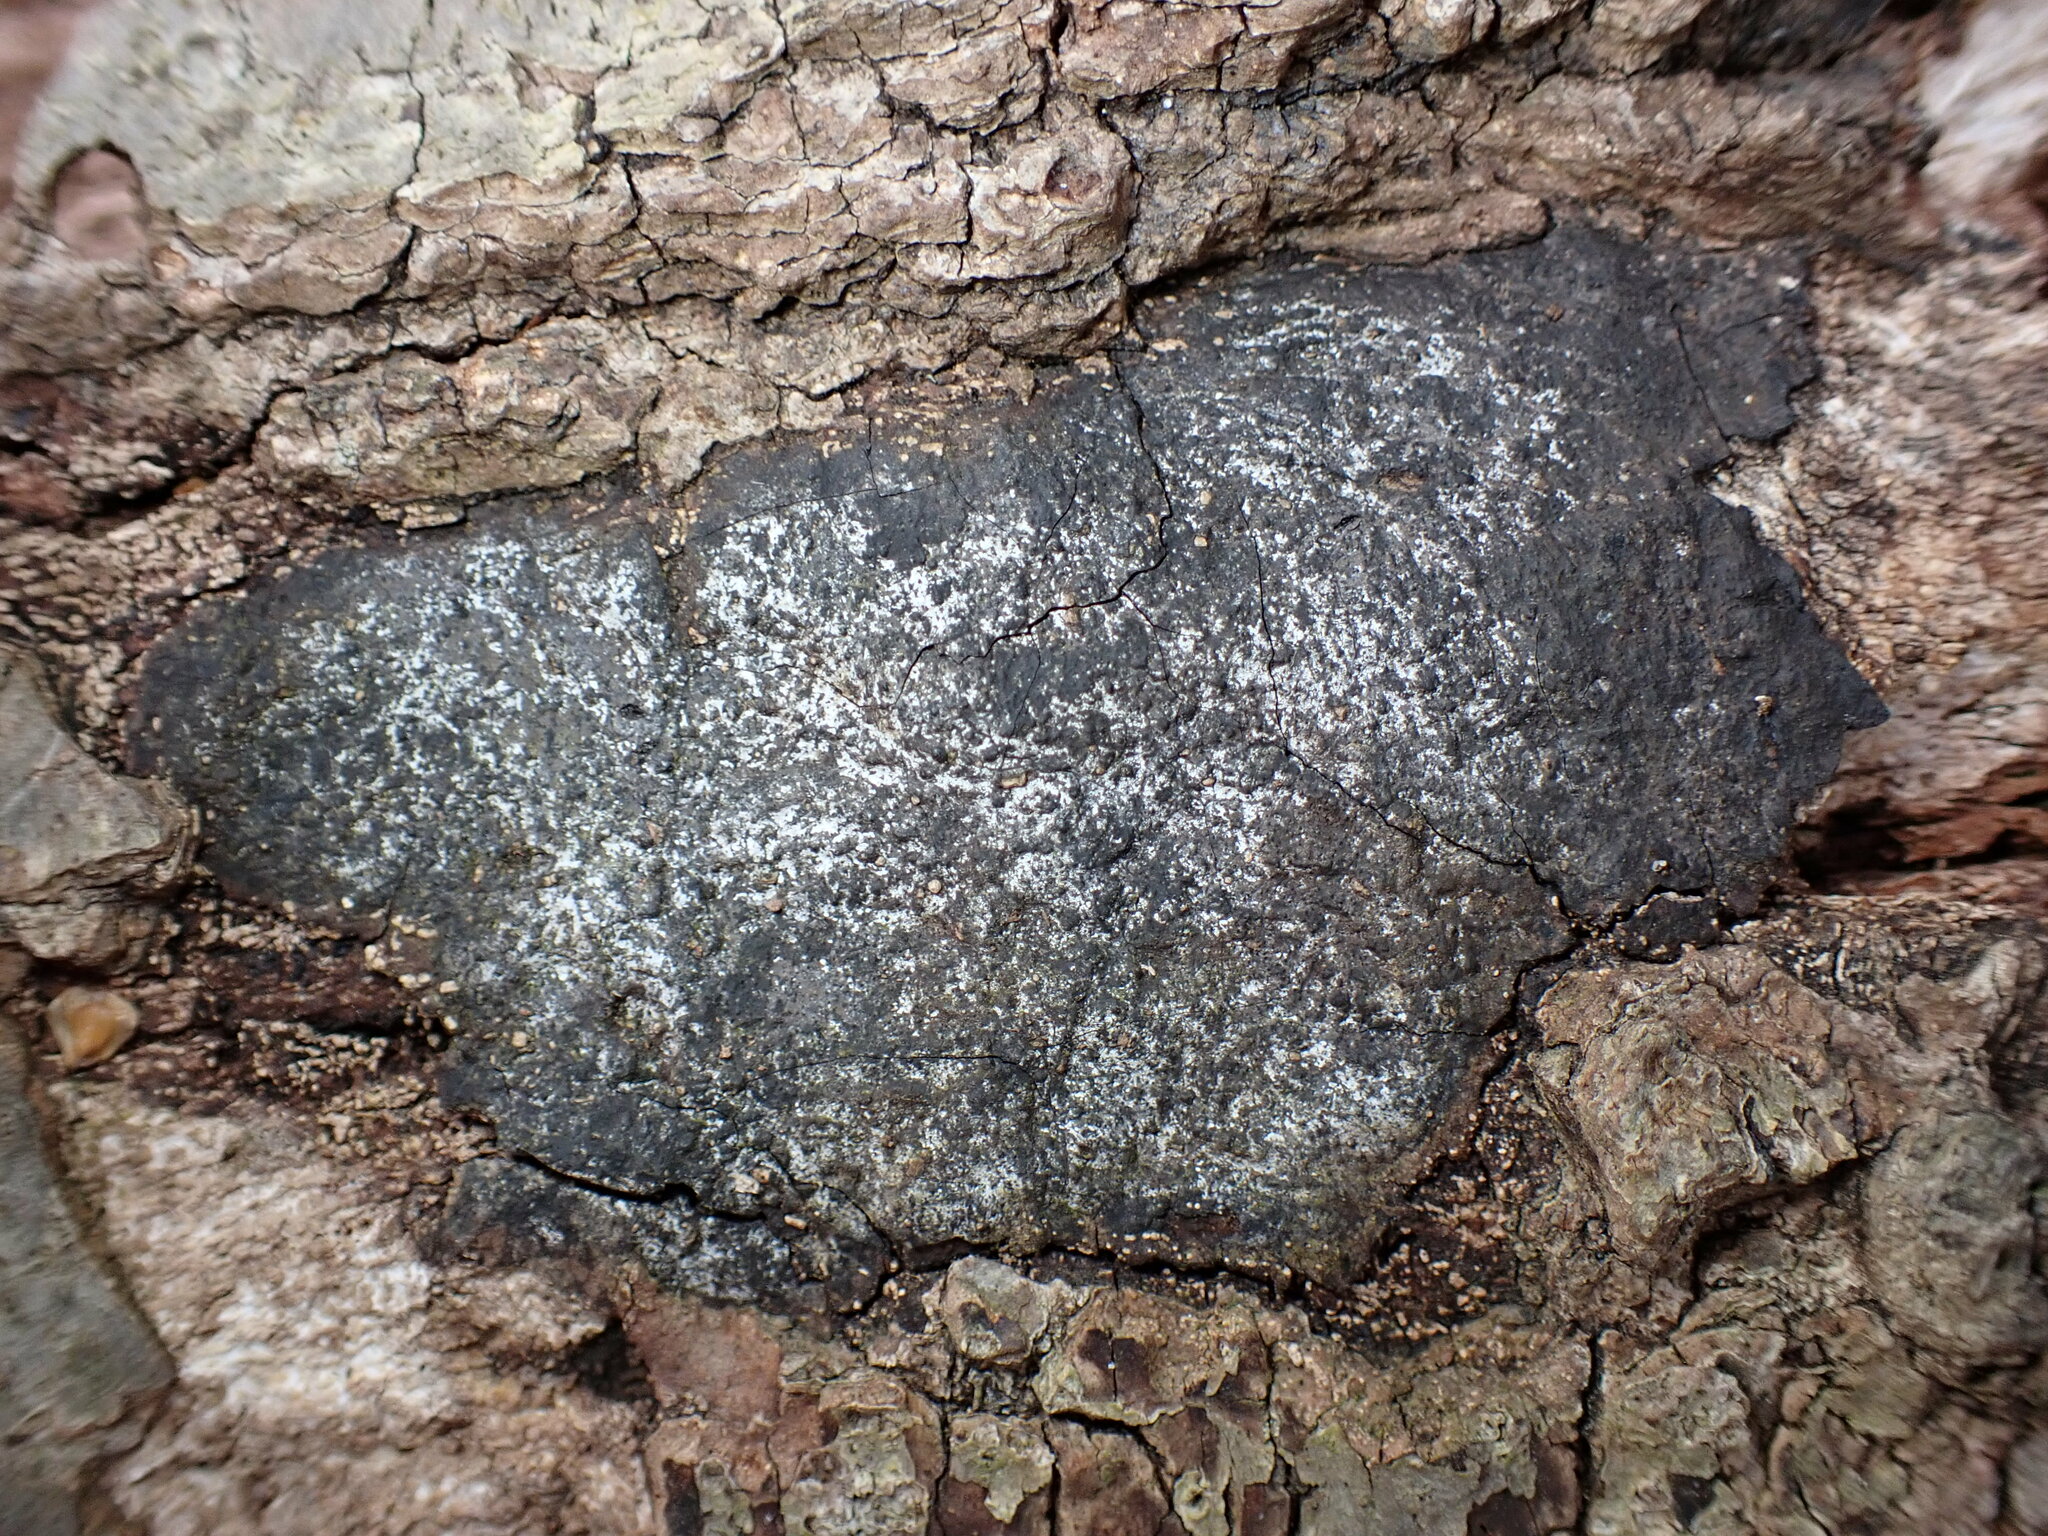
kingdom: Fungi
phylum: Ascomycota
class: Sordariomycetes
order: Xylariales
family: Graphostromataceae
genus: Biscogniauxia
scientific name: Biscogniauxia atropunctata
